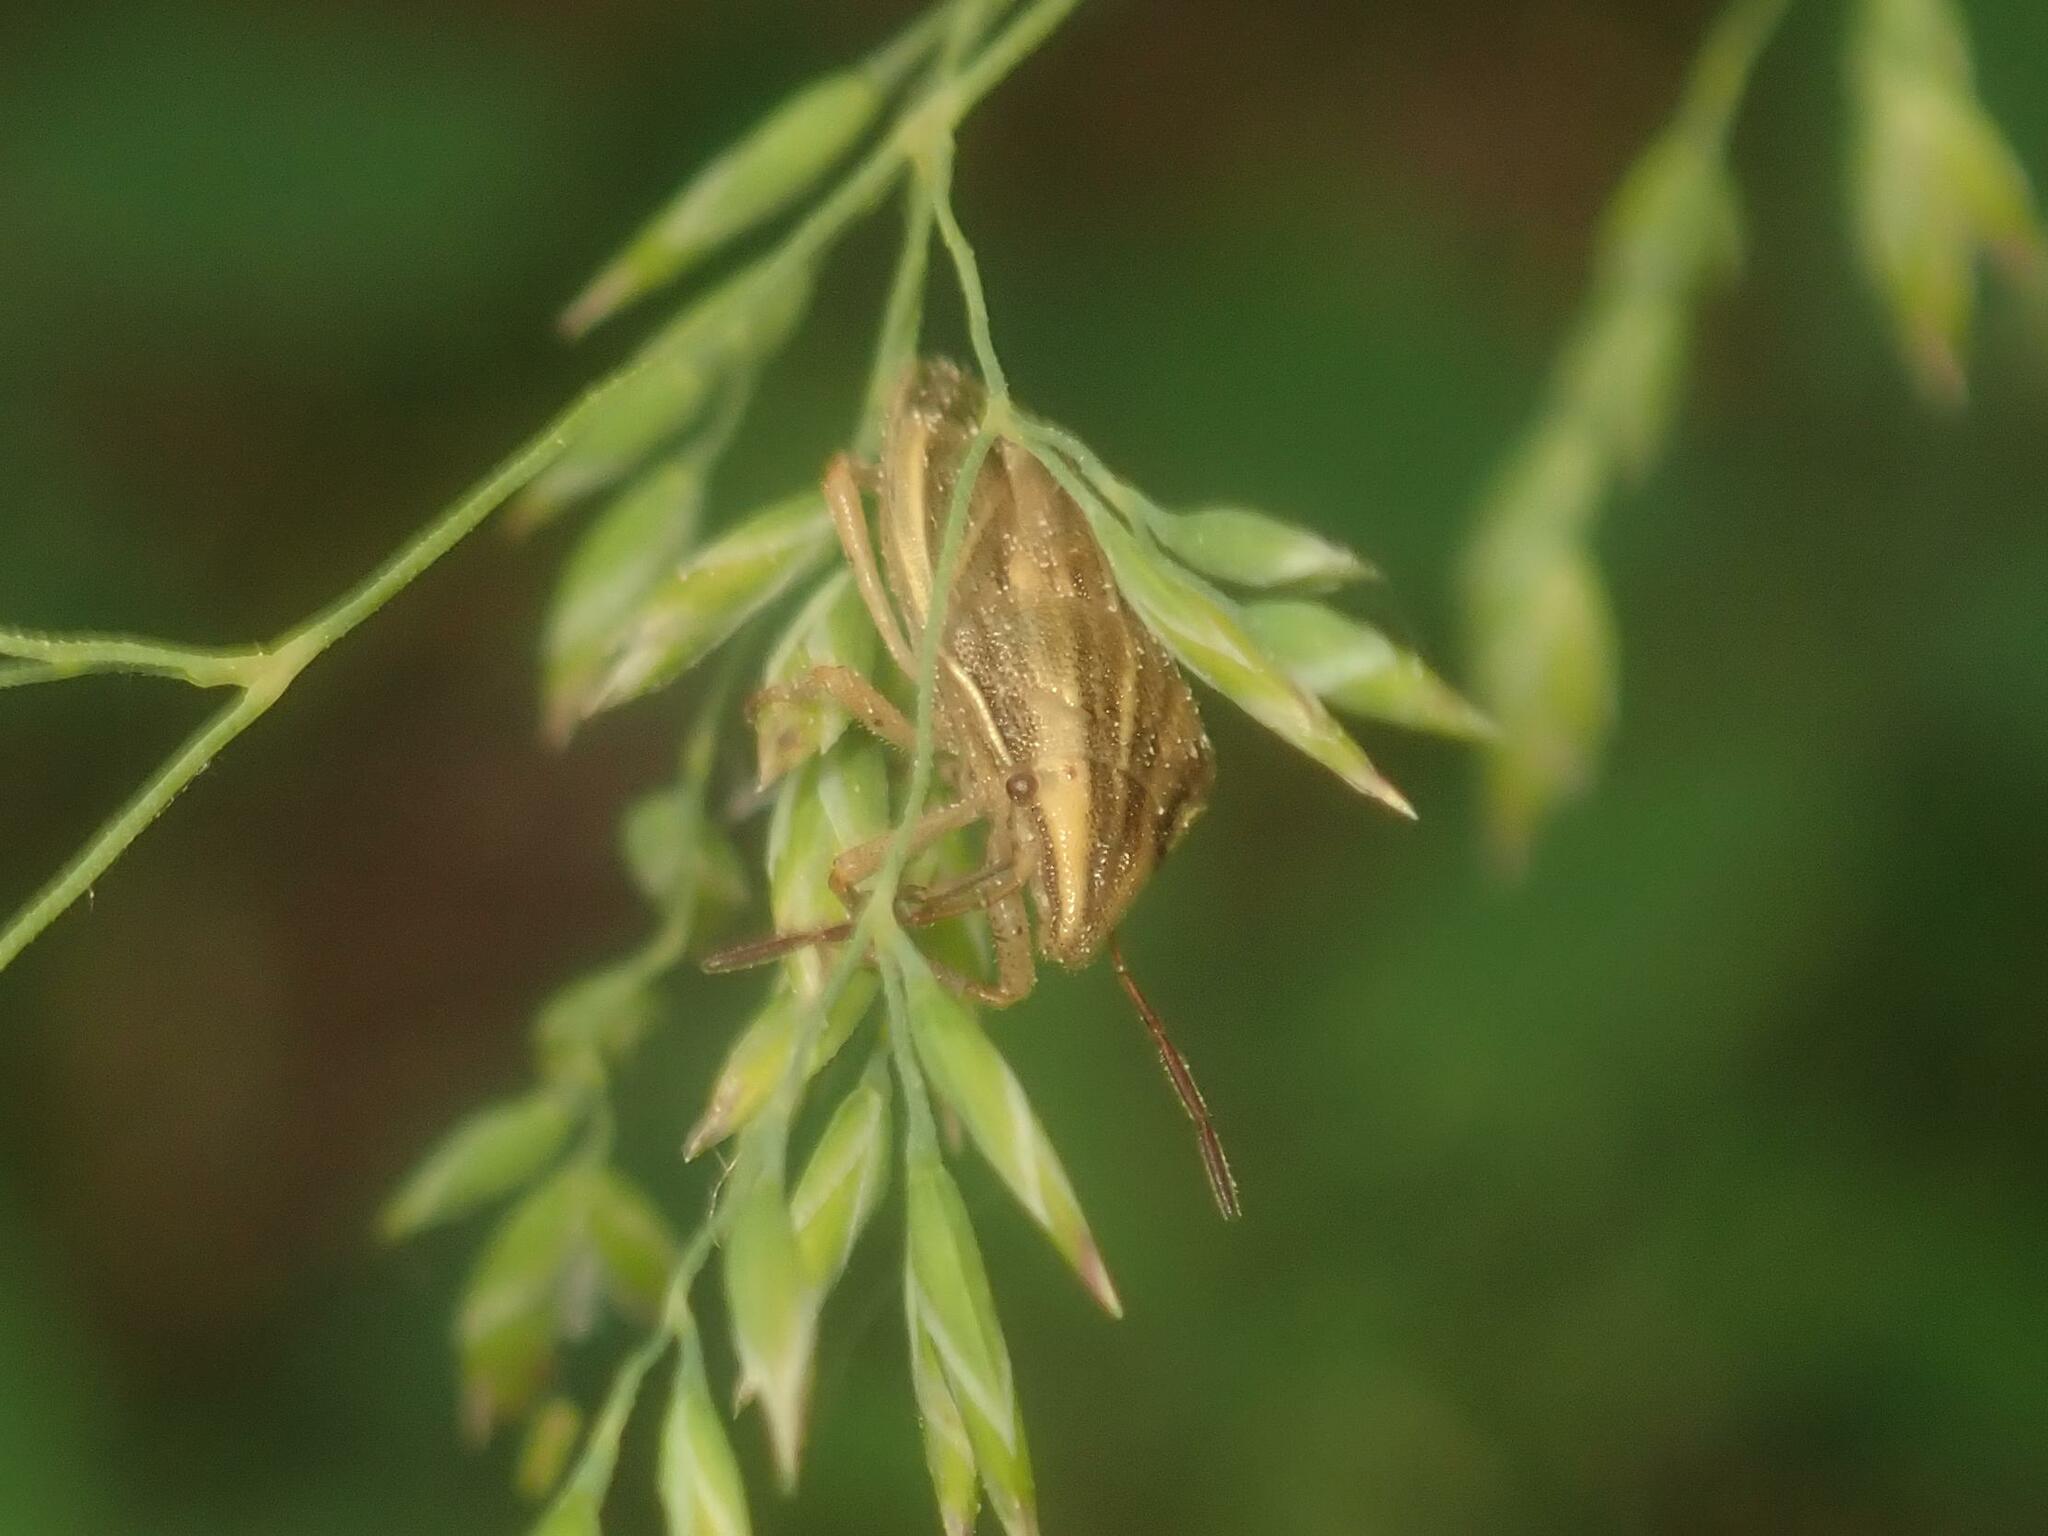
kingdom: Animalia
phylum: Arthropoda
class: Insecta
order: Hemiptera
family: Pentatomidae
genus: Aelia
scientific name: Aelia acuminata
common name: Bishop's mitre
